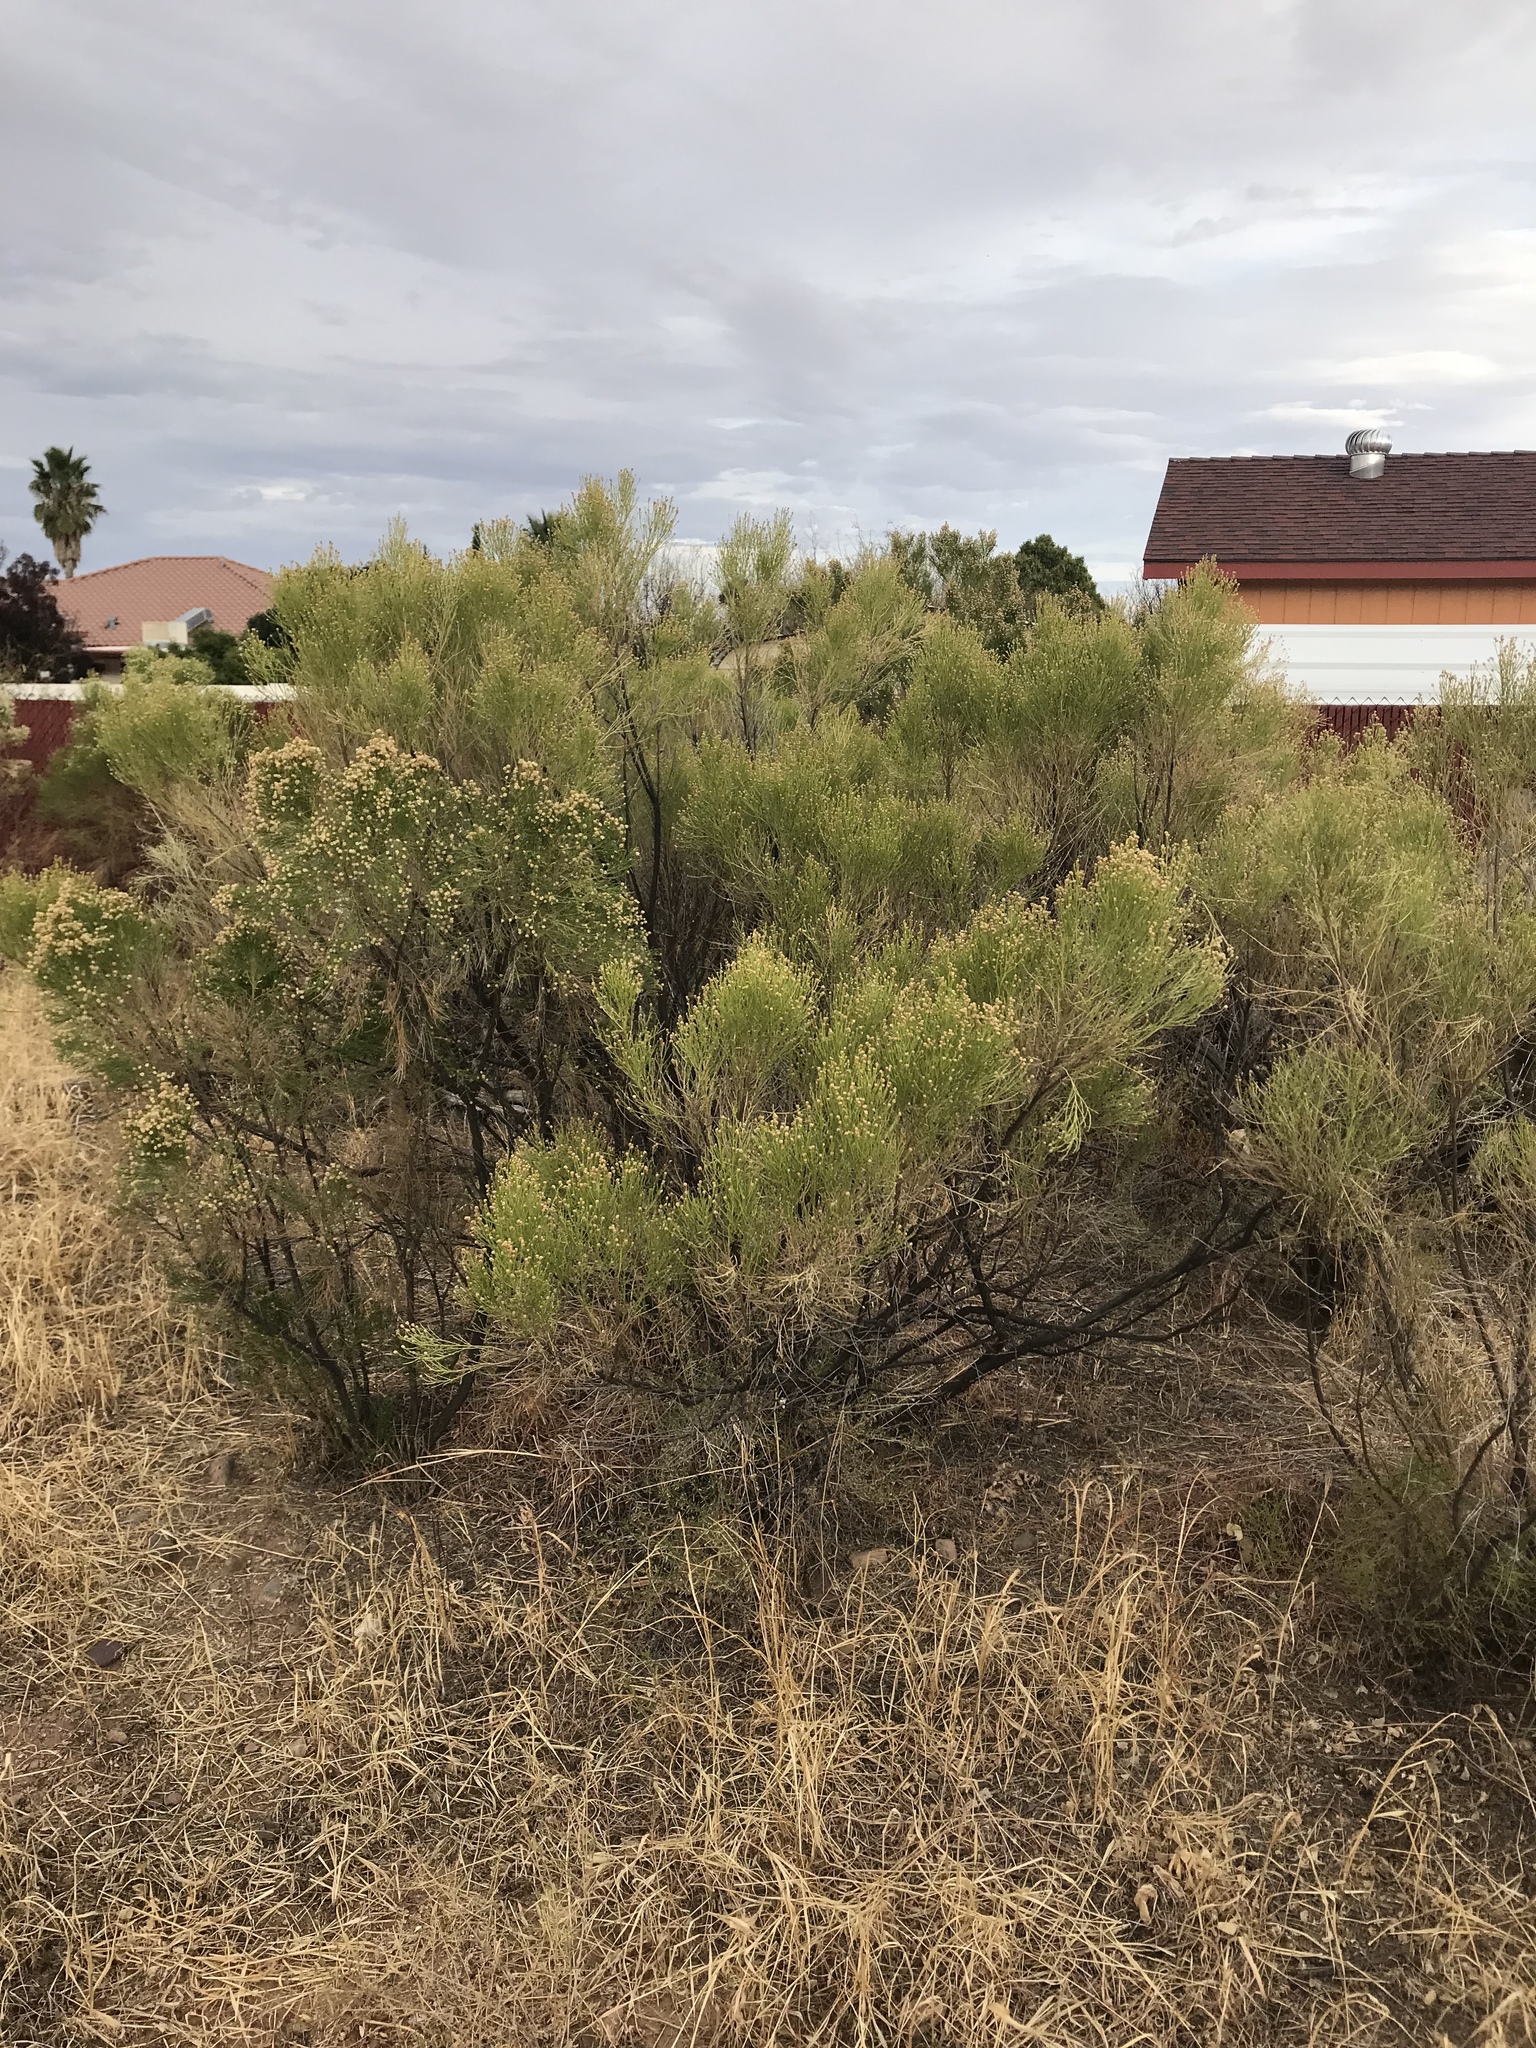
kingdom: Plantae
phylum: Tracheophyta
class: Magnoliopsida
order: Asterales
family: Asteraceae
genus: Baccharis
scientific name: Baccharis sarothroides
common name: Desert-broom
